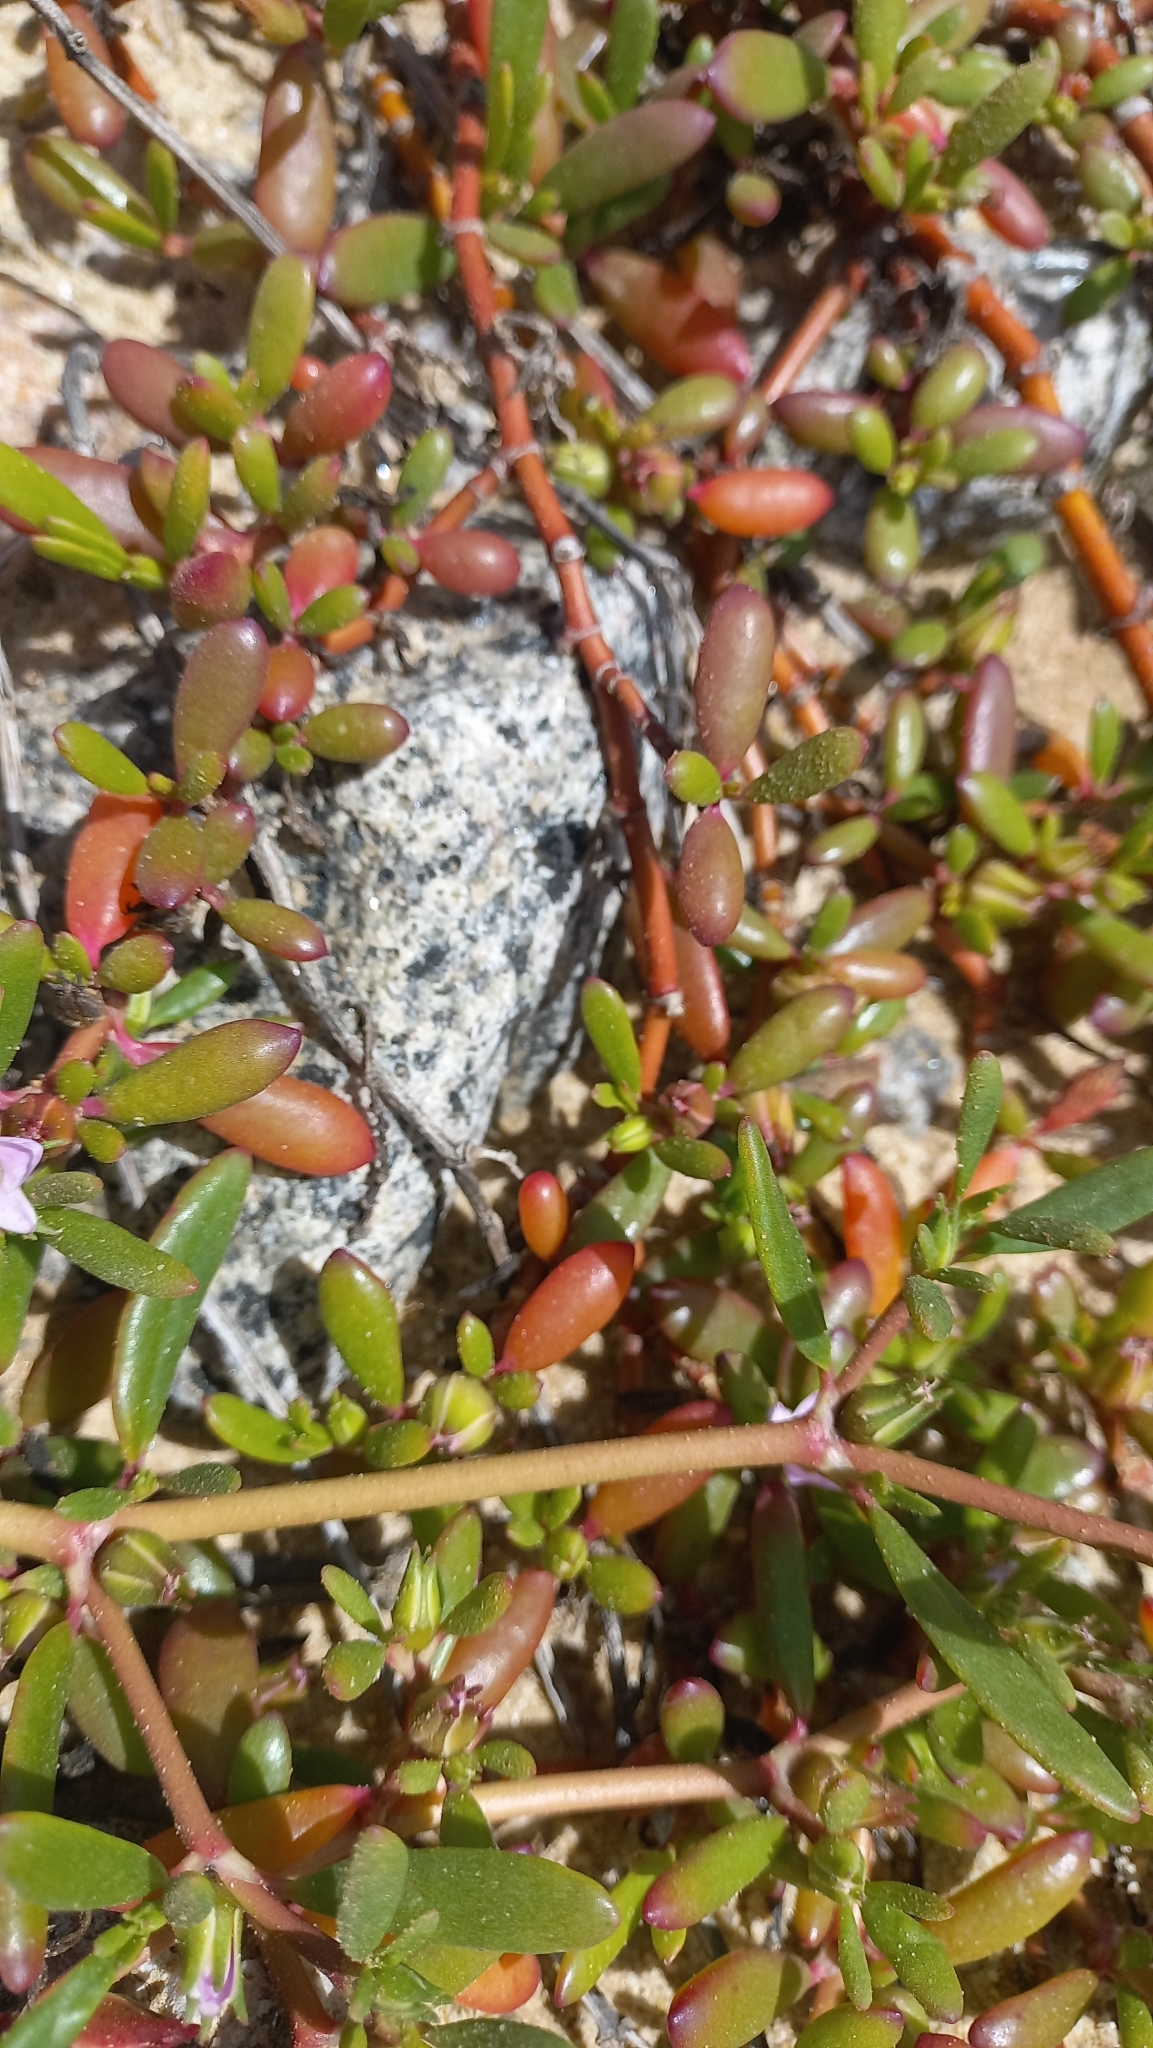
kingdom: Plantae
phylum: Tracheophyta
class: Magnoliopsida
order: Caryophyllales
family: Aizoaceae
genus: Sesuvium
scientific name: Sesuvium portulacastrum
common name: Sea-purslane
